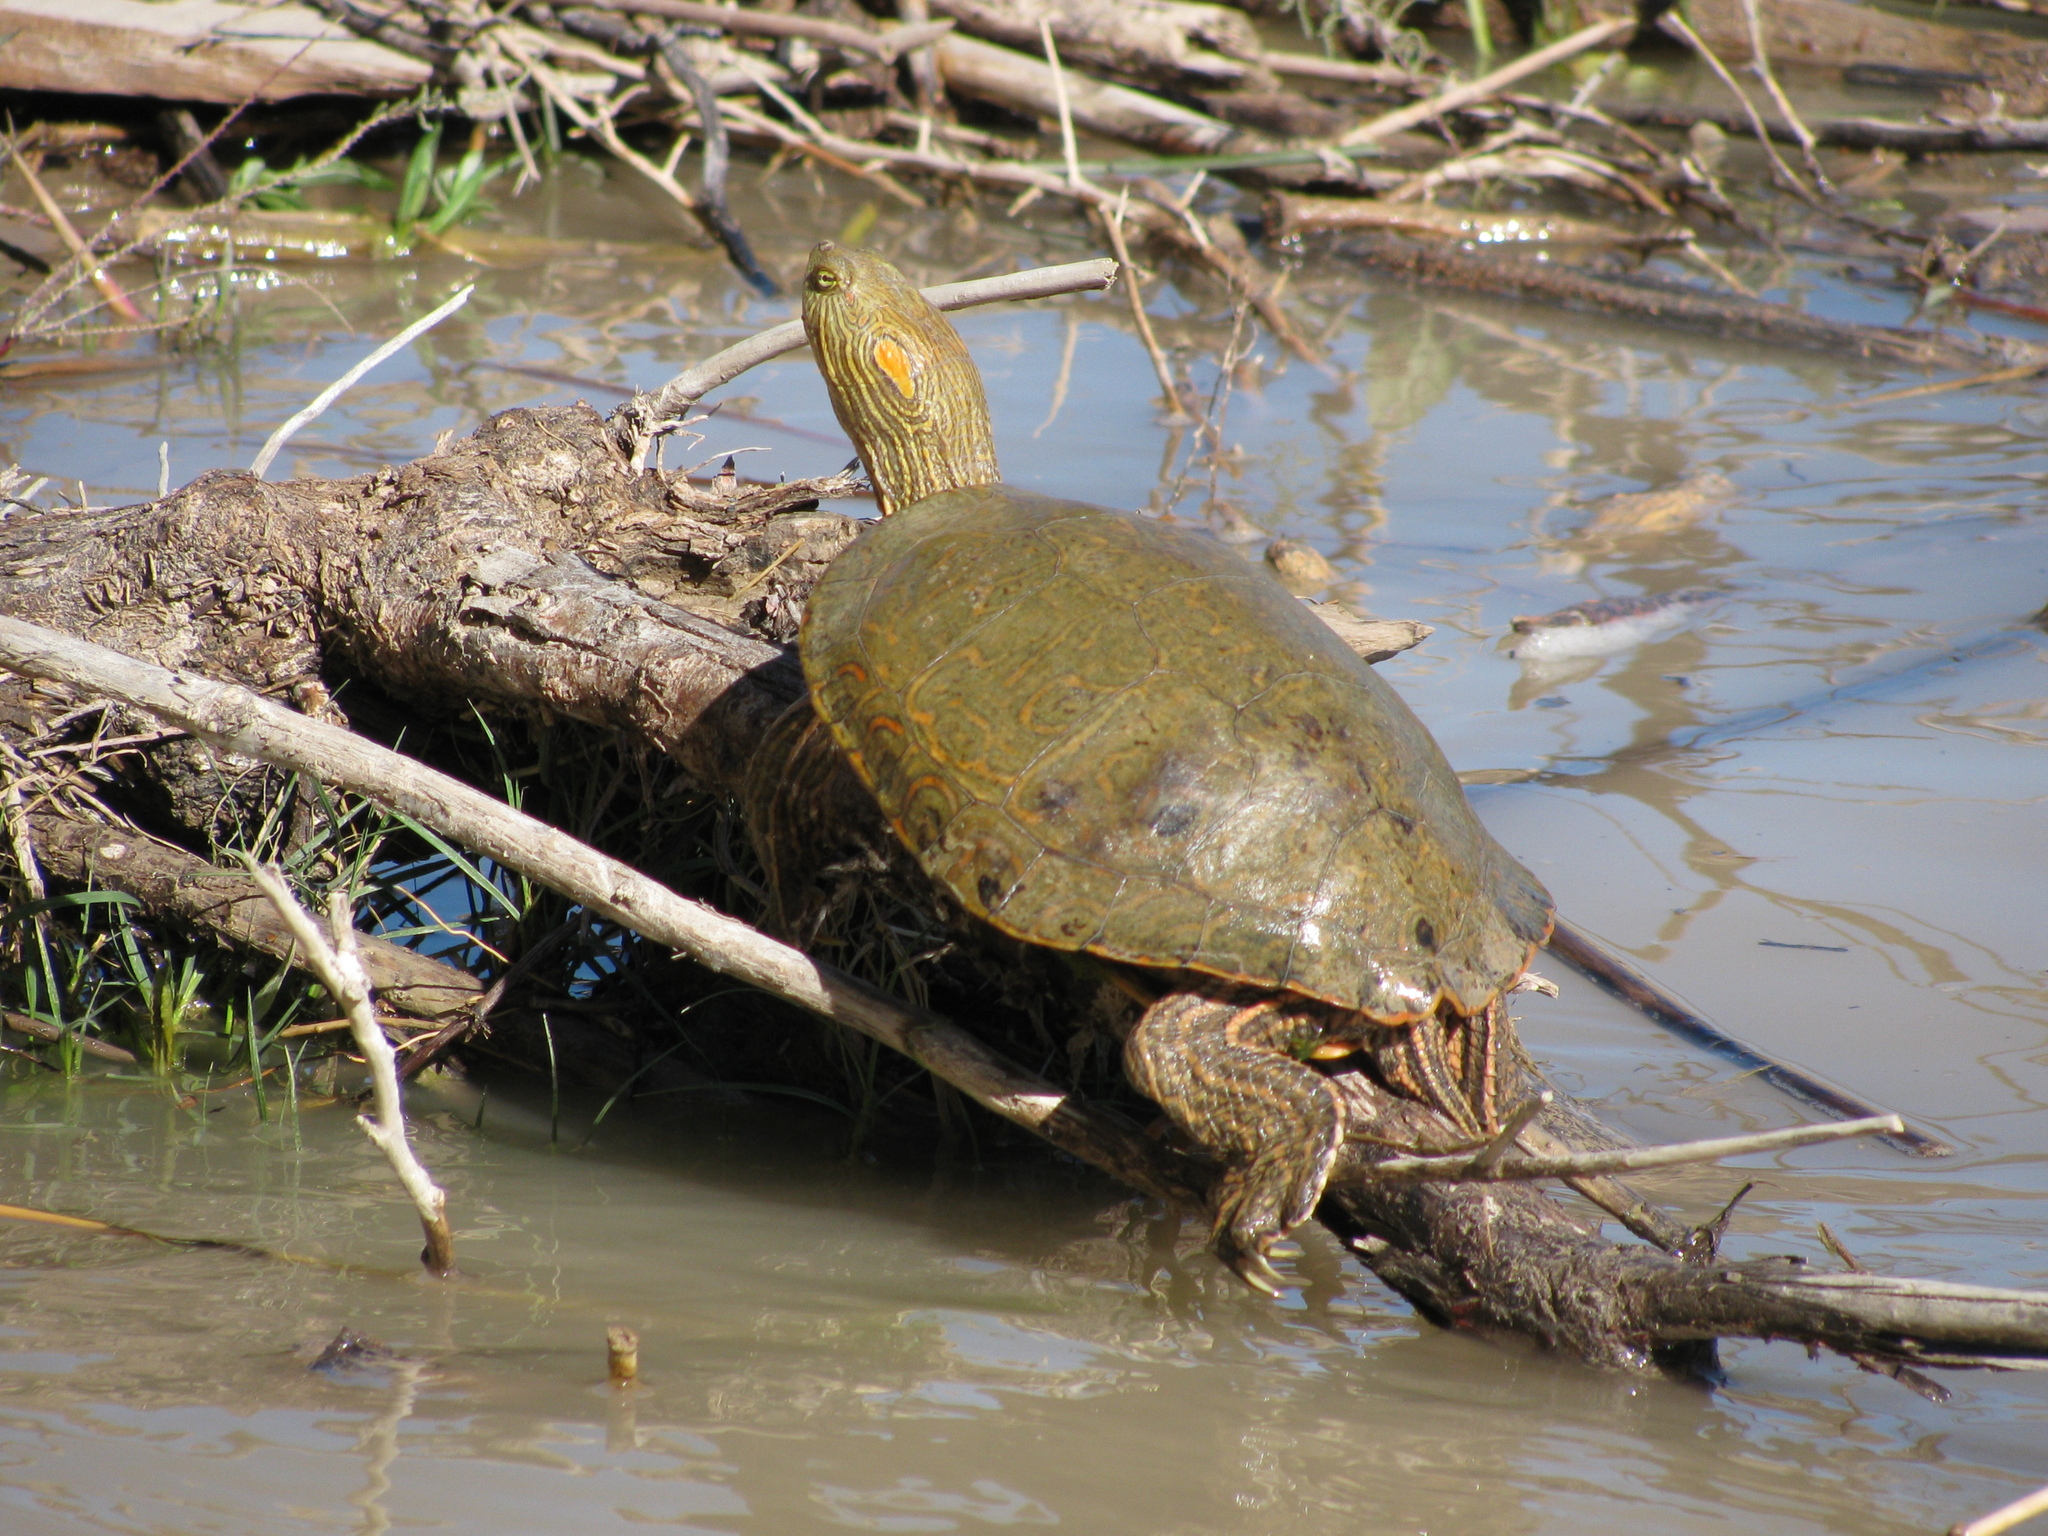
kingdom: Animalia
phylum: Chordata
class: Testudines
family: Emydidae
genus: Trachemys
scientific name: Trachemys gaigeae
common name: Big bend slider
